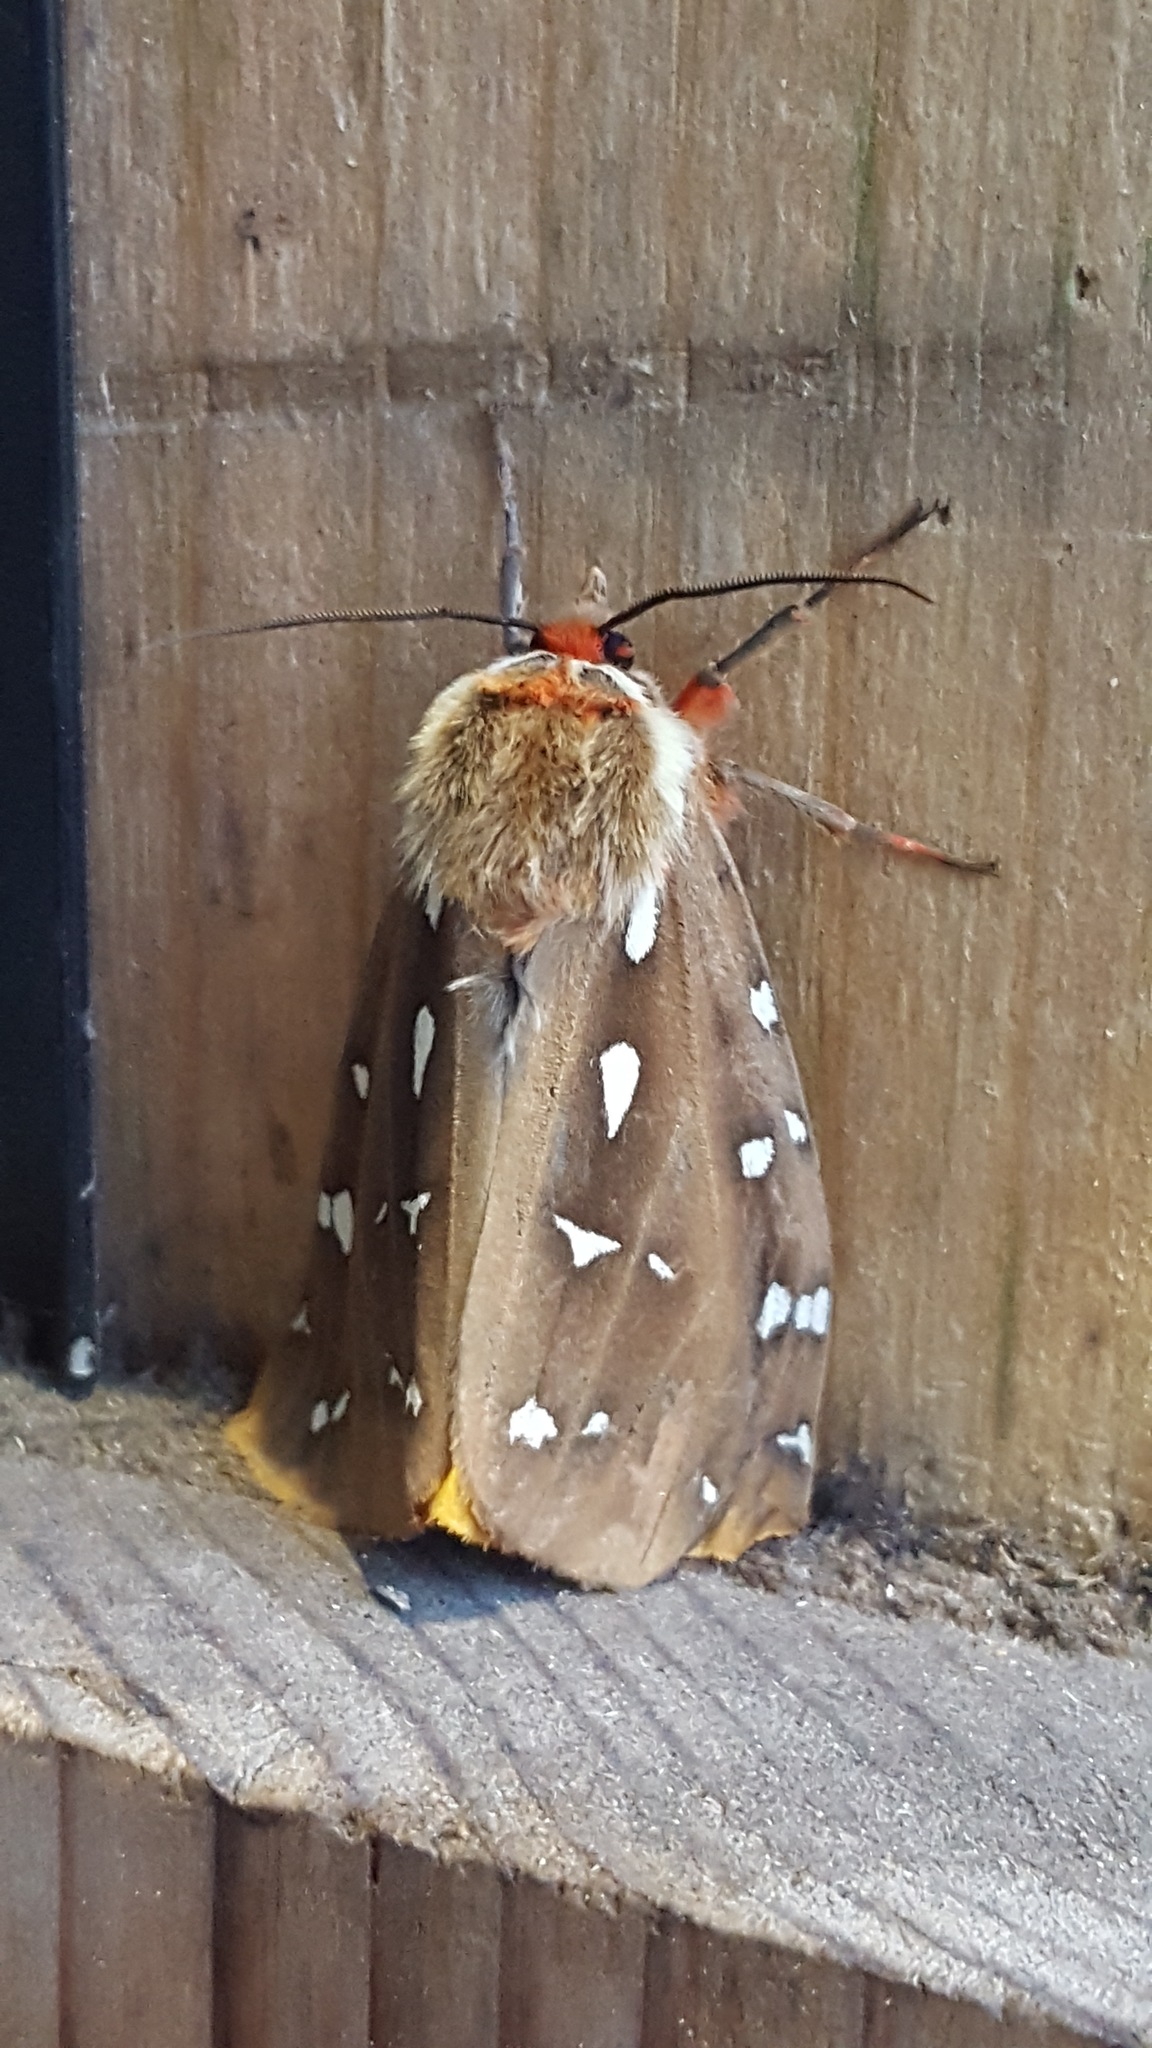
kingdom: Animalia
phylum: Arthropoda
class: Insecta
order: Lepidoptera
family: Erebidae
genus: Arctia
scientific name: Arctia parthenos
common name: St. lawrence tiger moth
